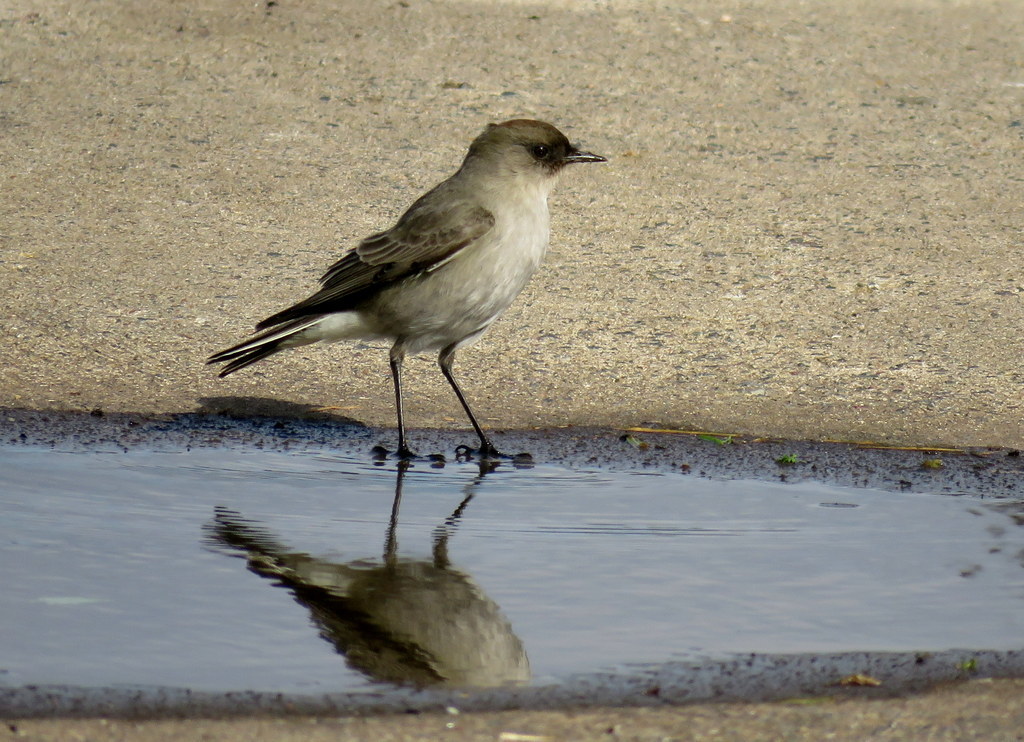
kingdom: Animalia
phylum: Chordata
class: Aves
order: Passeriformes
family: Tyrannidae
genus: Muscisaxicola
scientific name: Muscisaxicola maclovianus
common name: Dark-faced ground tyrant
